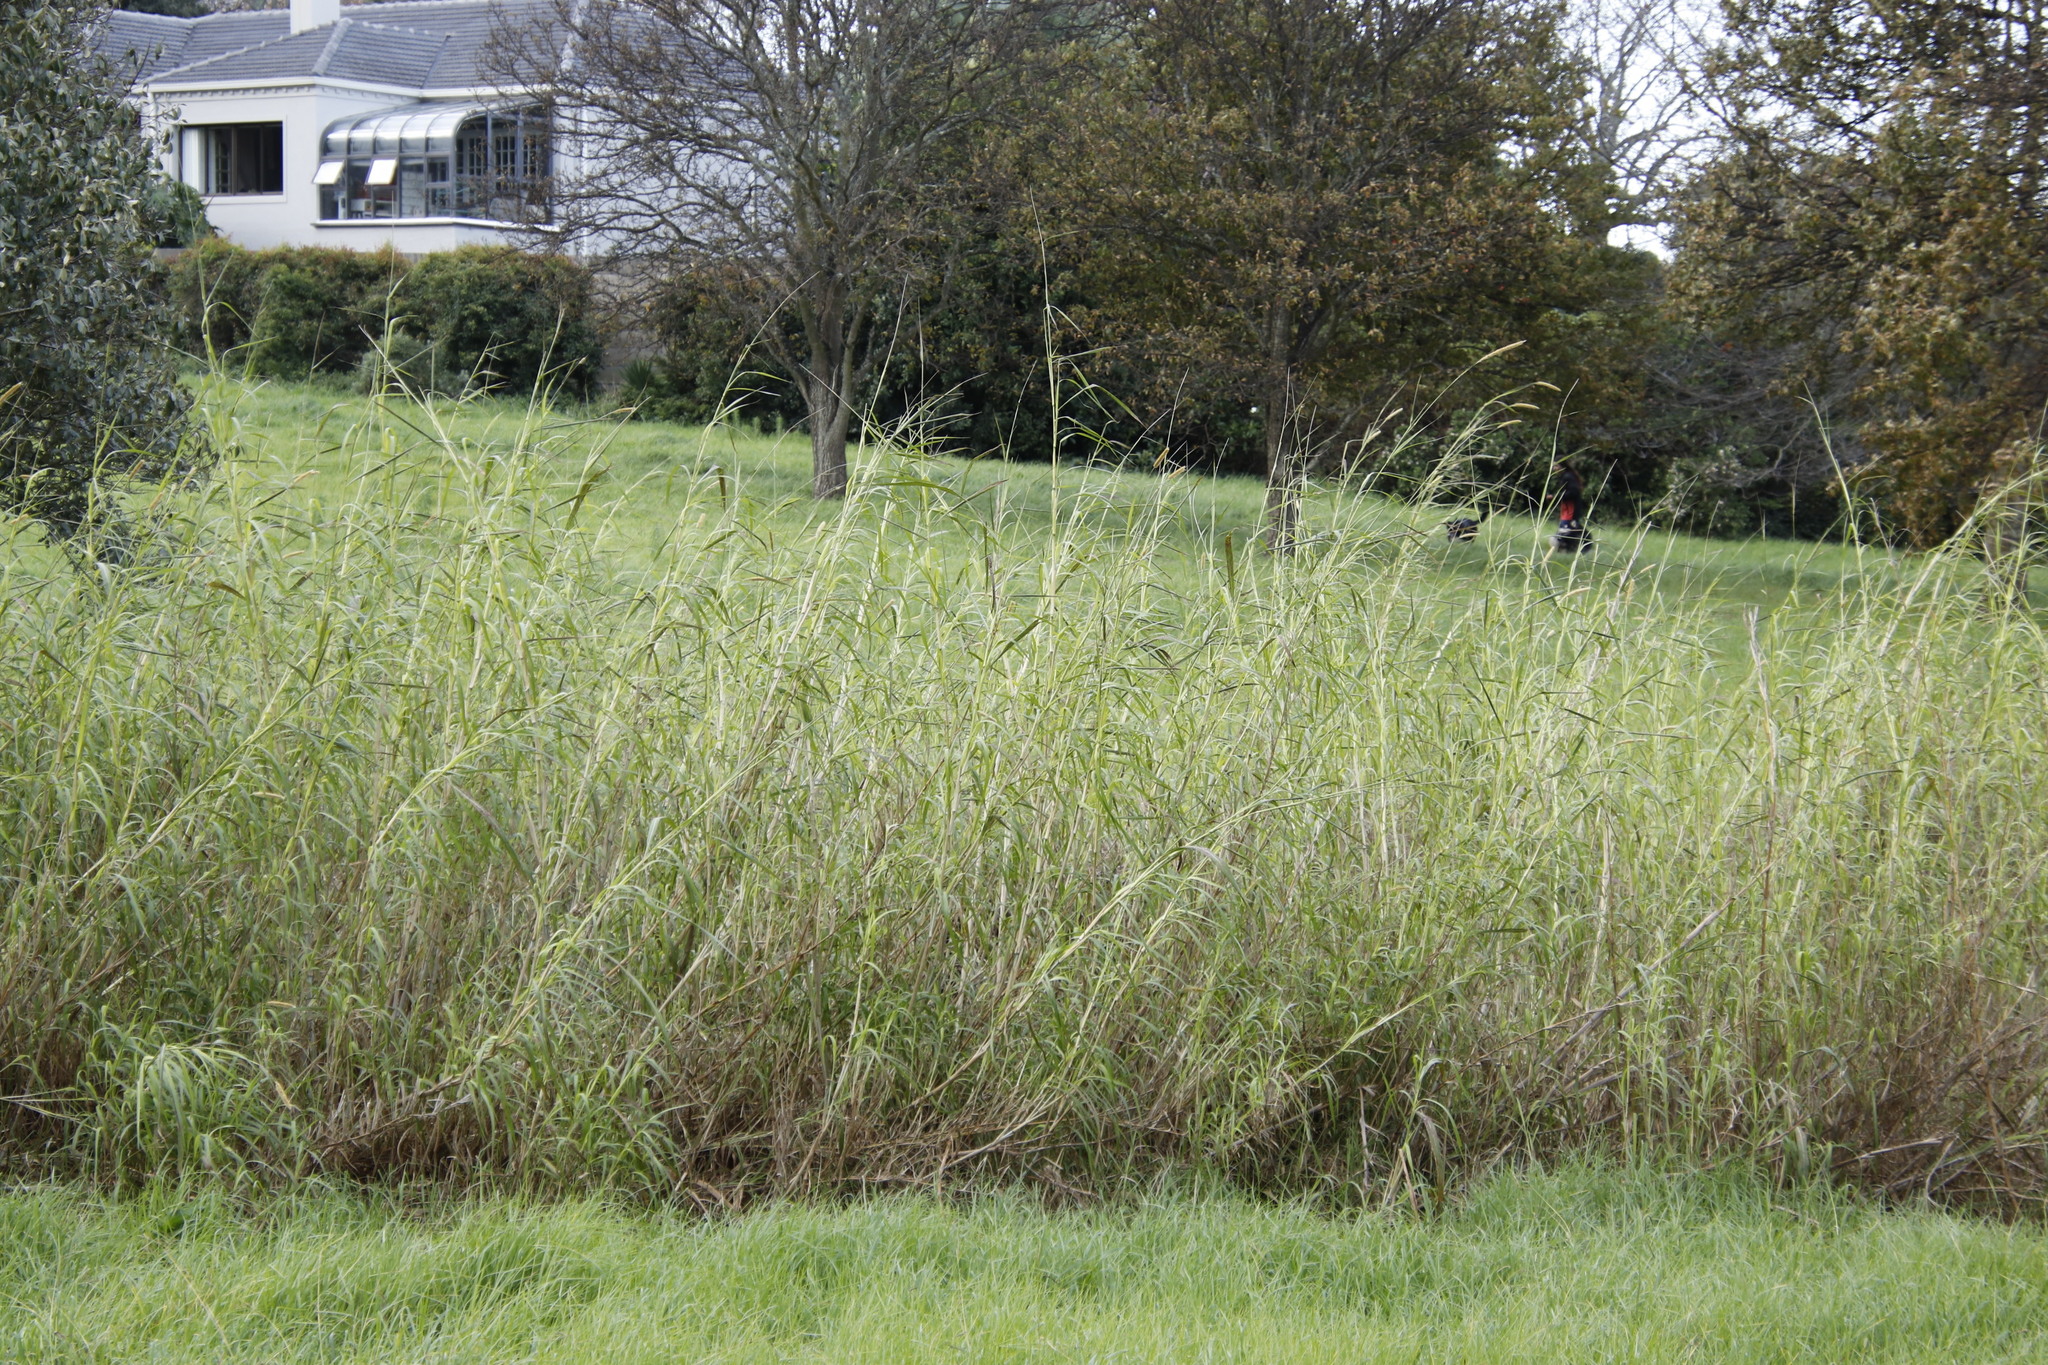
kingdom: Plantae
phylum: Tracheophyta
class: Liliopsida
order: Poales
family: Poaceae
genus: Cenchrus
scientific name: Cenchrus purpureus
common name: Elephant grass
